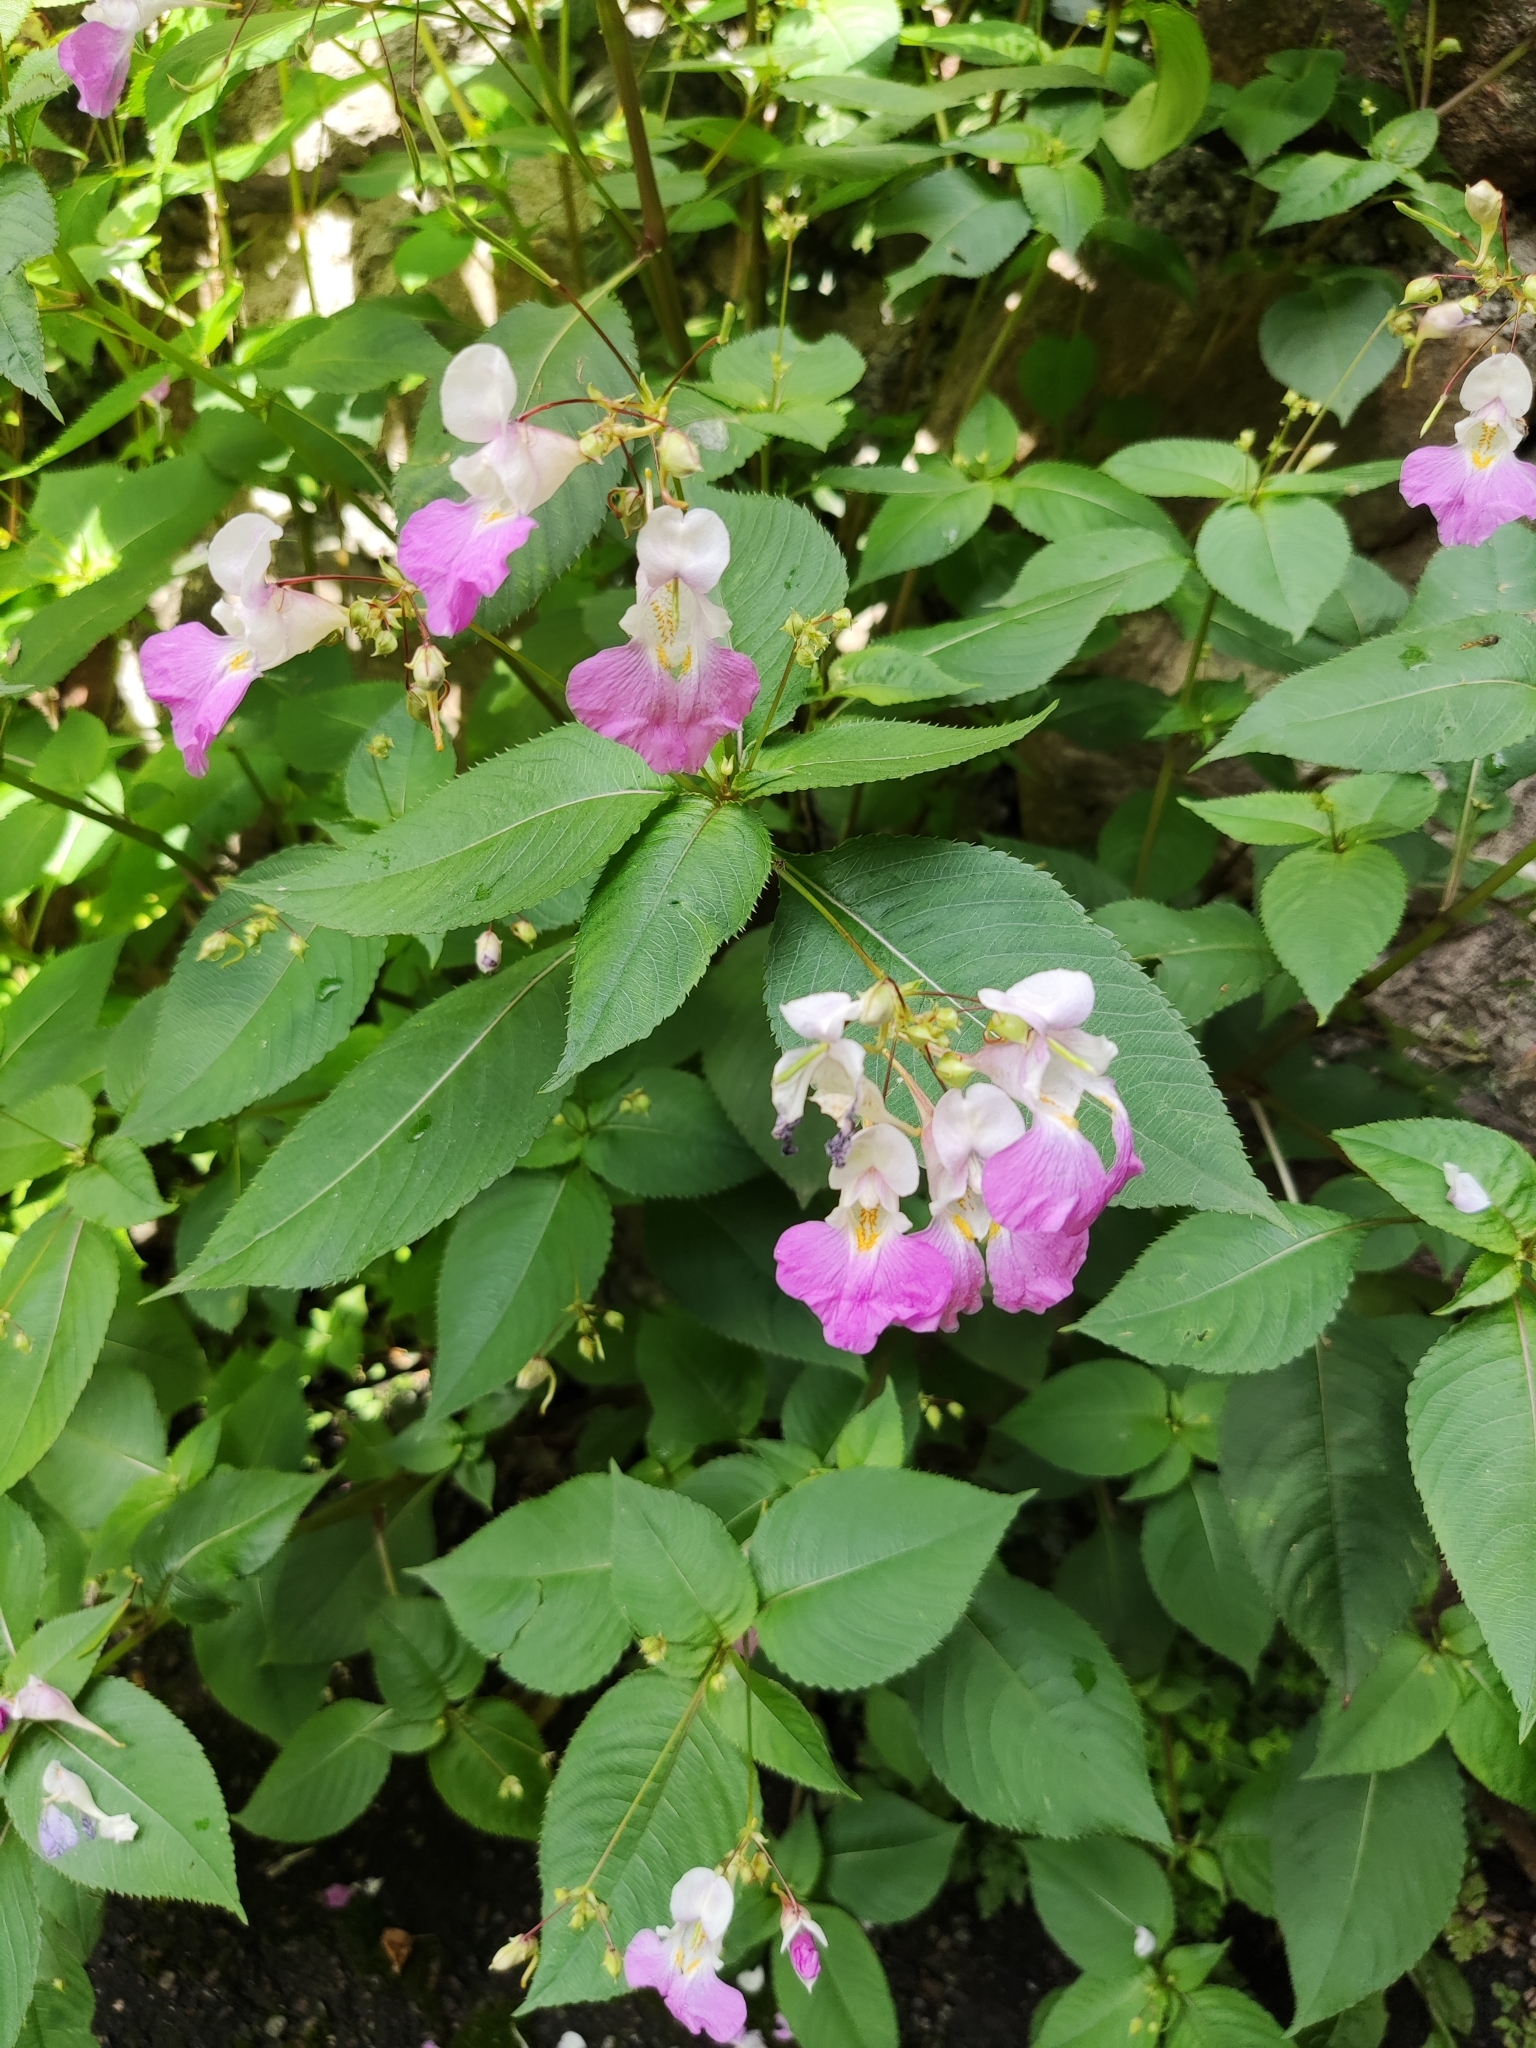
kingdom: Plantae
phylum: Tracheophyta
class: Magnoliopsida
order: Ericales
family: Balsaminaceae
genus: Impatiens
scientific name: Impatiens balfourii
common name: Balfour's touch-me-not
